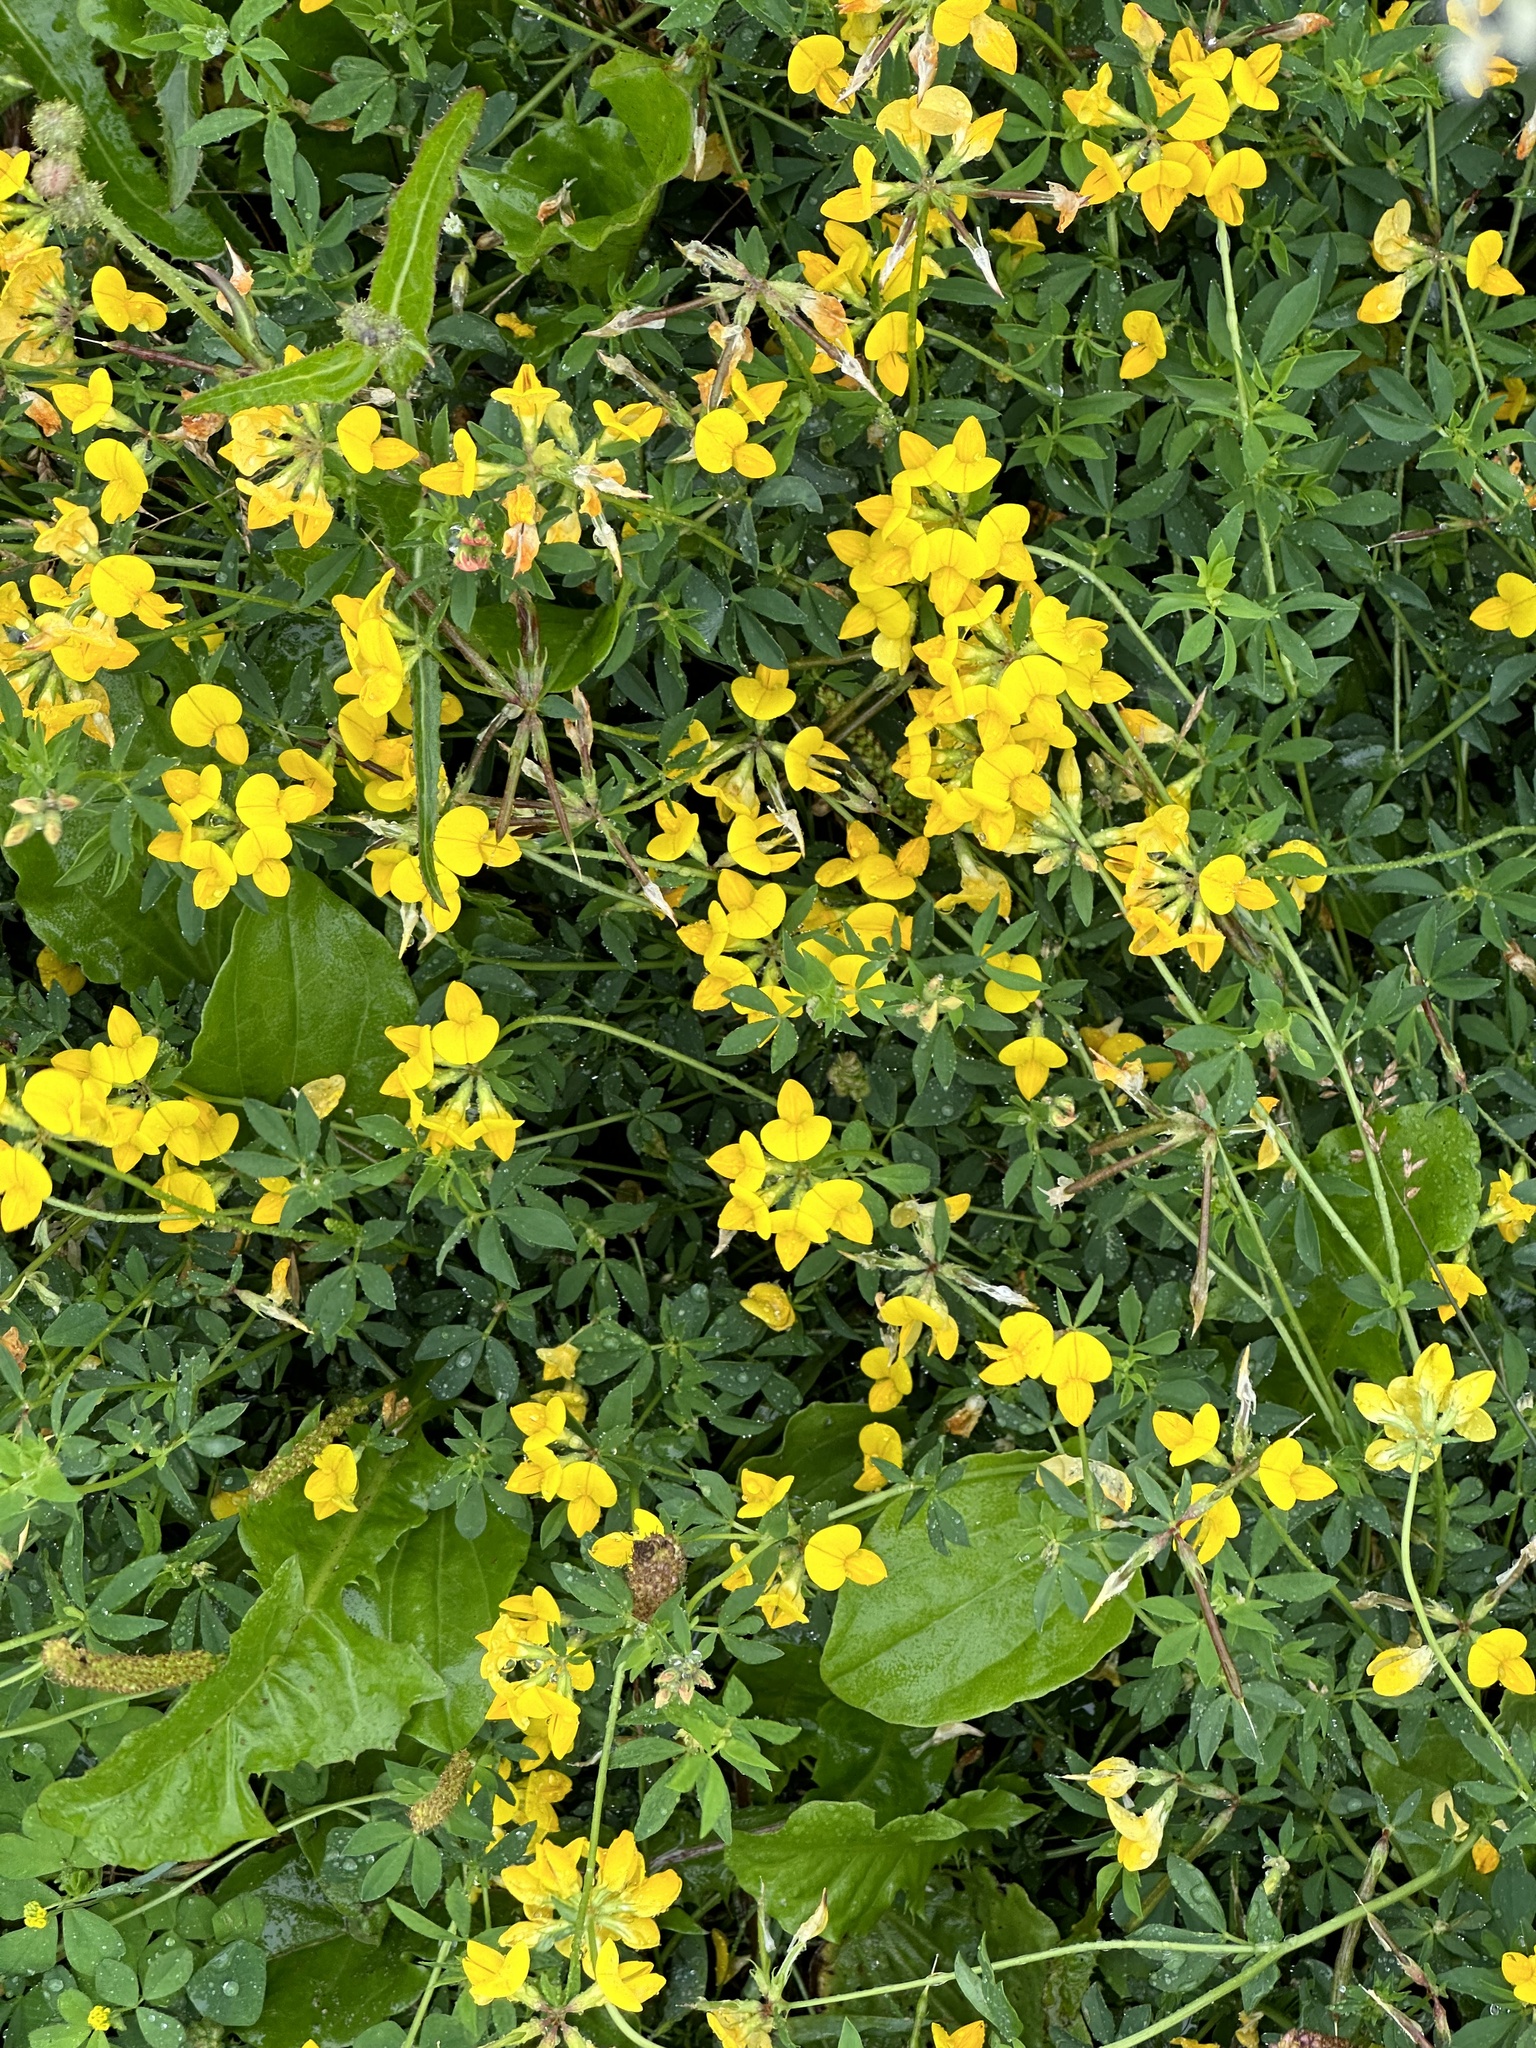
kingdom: Plantae
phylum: Tracheophyta
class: Magnoliopsida
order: Fabales
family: Fabaceae
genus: Lotus
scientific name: Lotus corniculatus
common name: Common bird's-foot-trefoil
